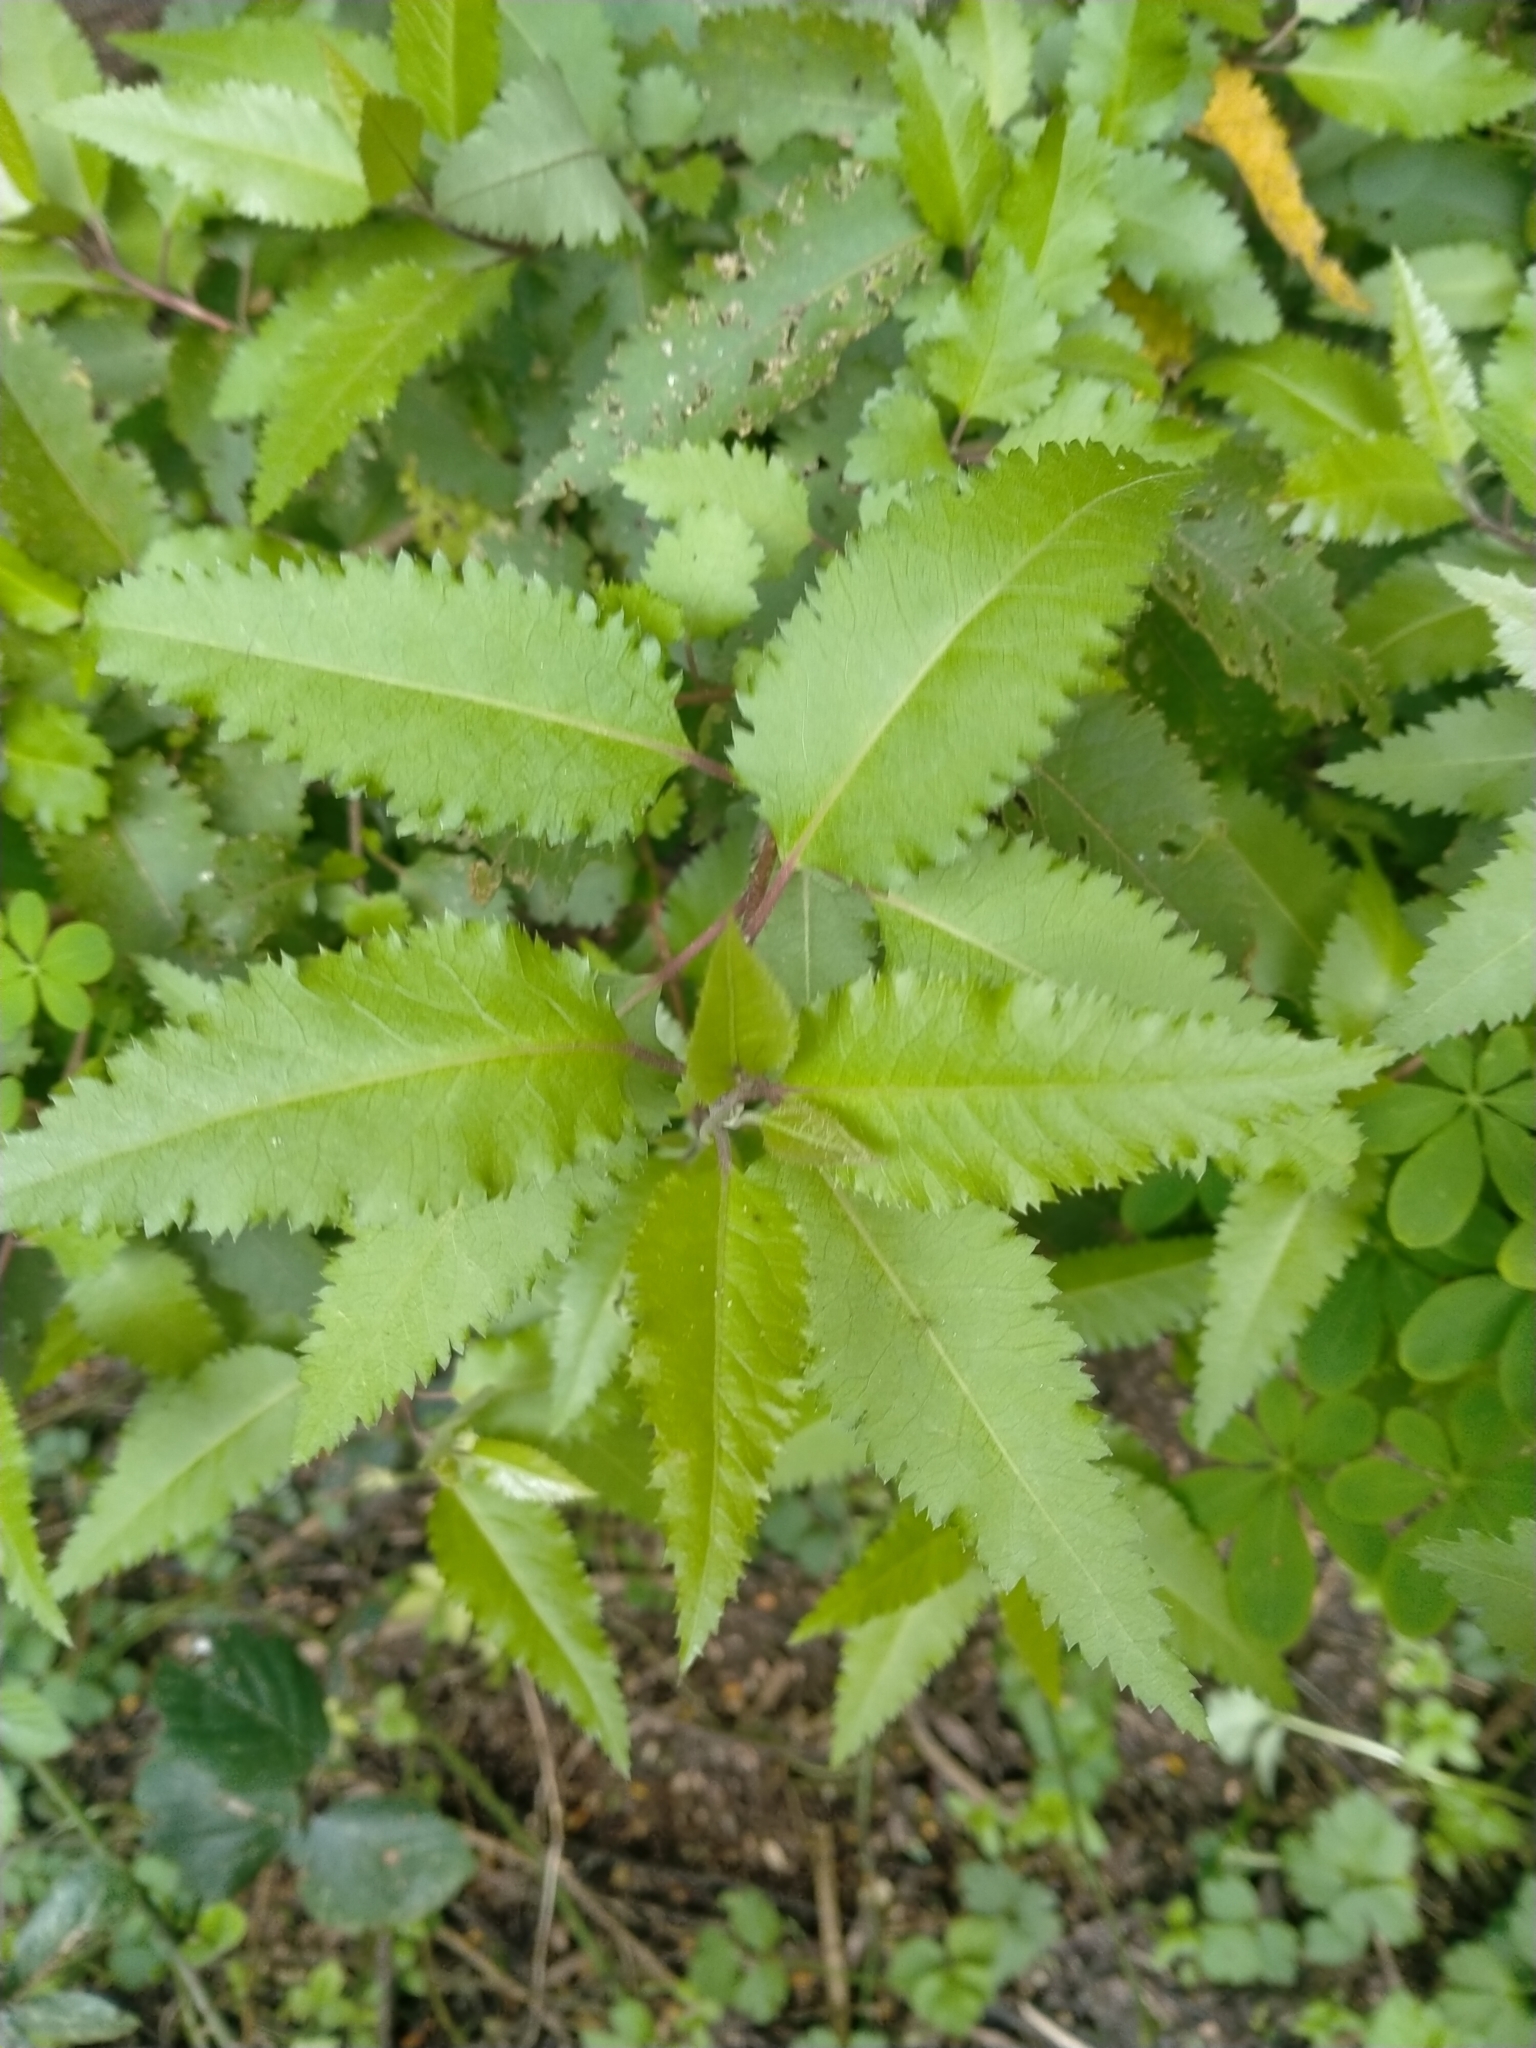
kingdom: Plantae
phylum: Tracheophyta
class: Magnoliopsida
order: Malvales
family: Malvaceae
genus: Hoheria
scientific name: Hoheria sexstylosa
